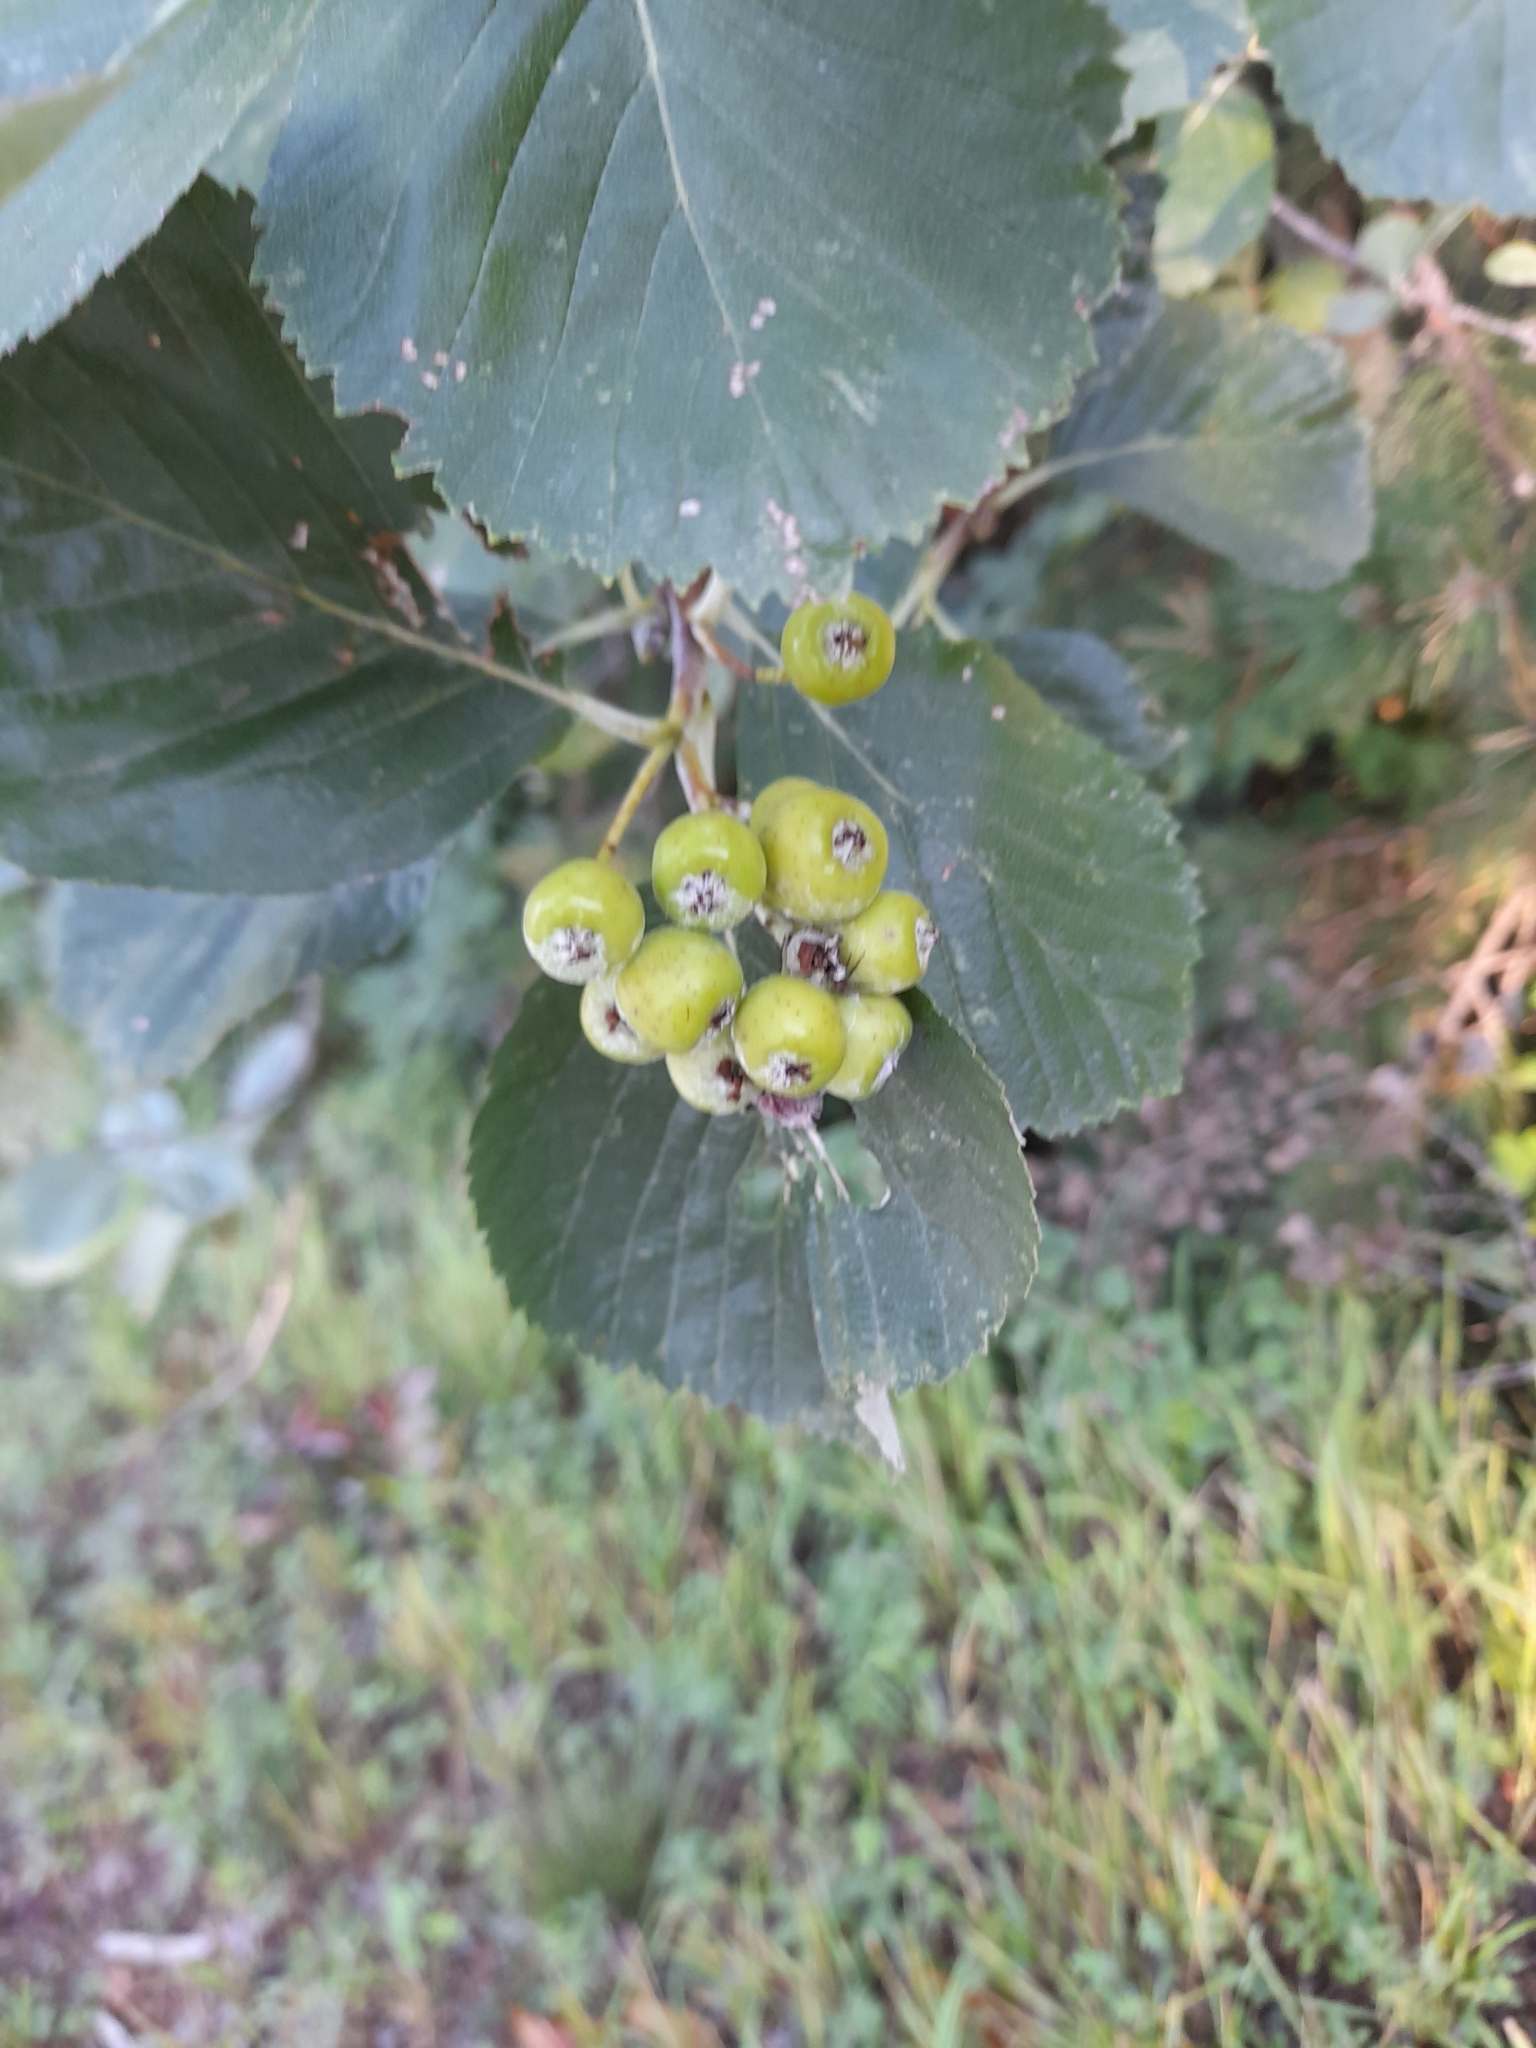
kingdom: Plantae
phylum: Tracheophyta
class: Magnoliopsida
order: Rosales
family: Rosaceae
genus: Aria
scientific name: Aria edulis
